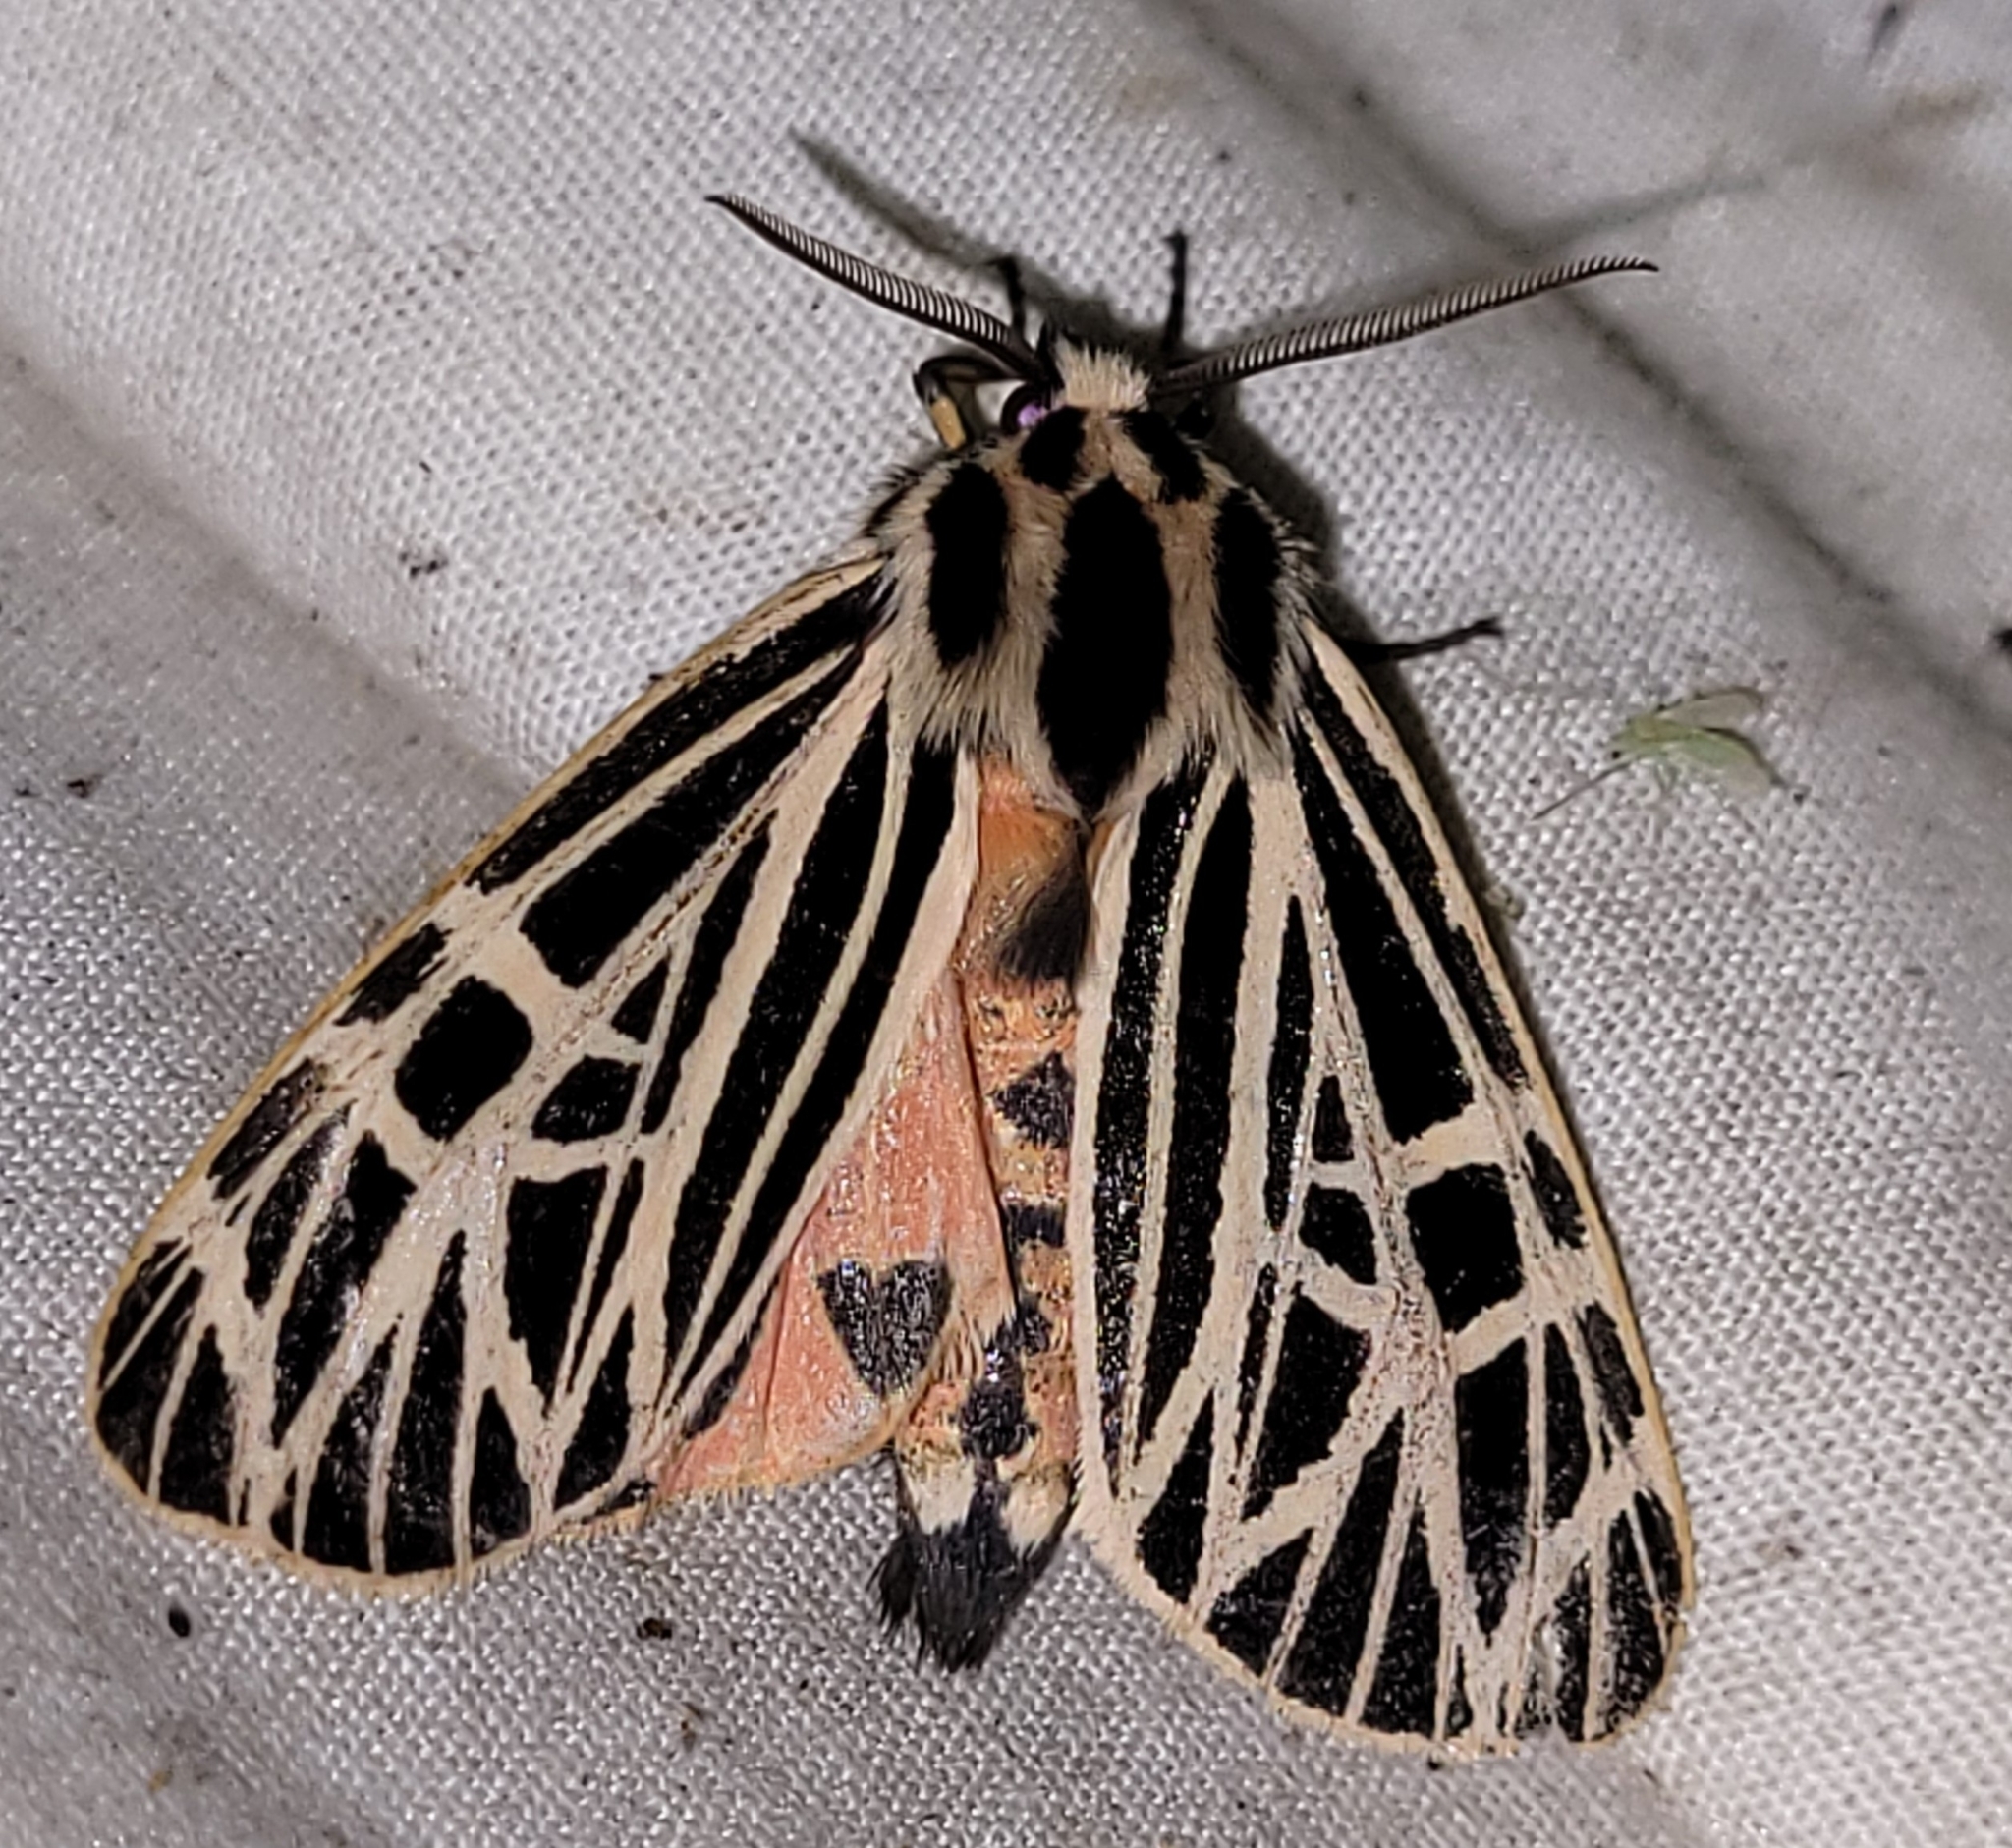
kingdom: Animalia
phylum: Arthropoda
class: Insecta
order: Lepidoptera
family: Erebidae
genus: Grammia
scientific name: Grammia virgo
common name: Virgin tiger moth
